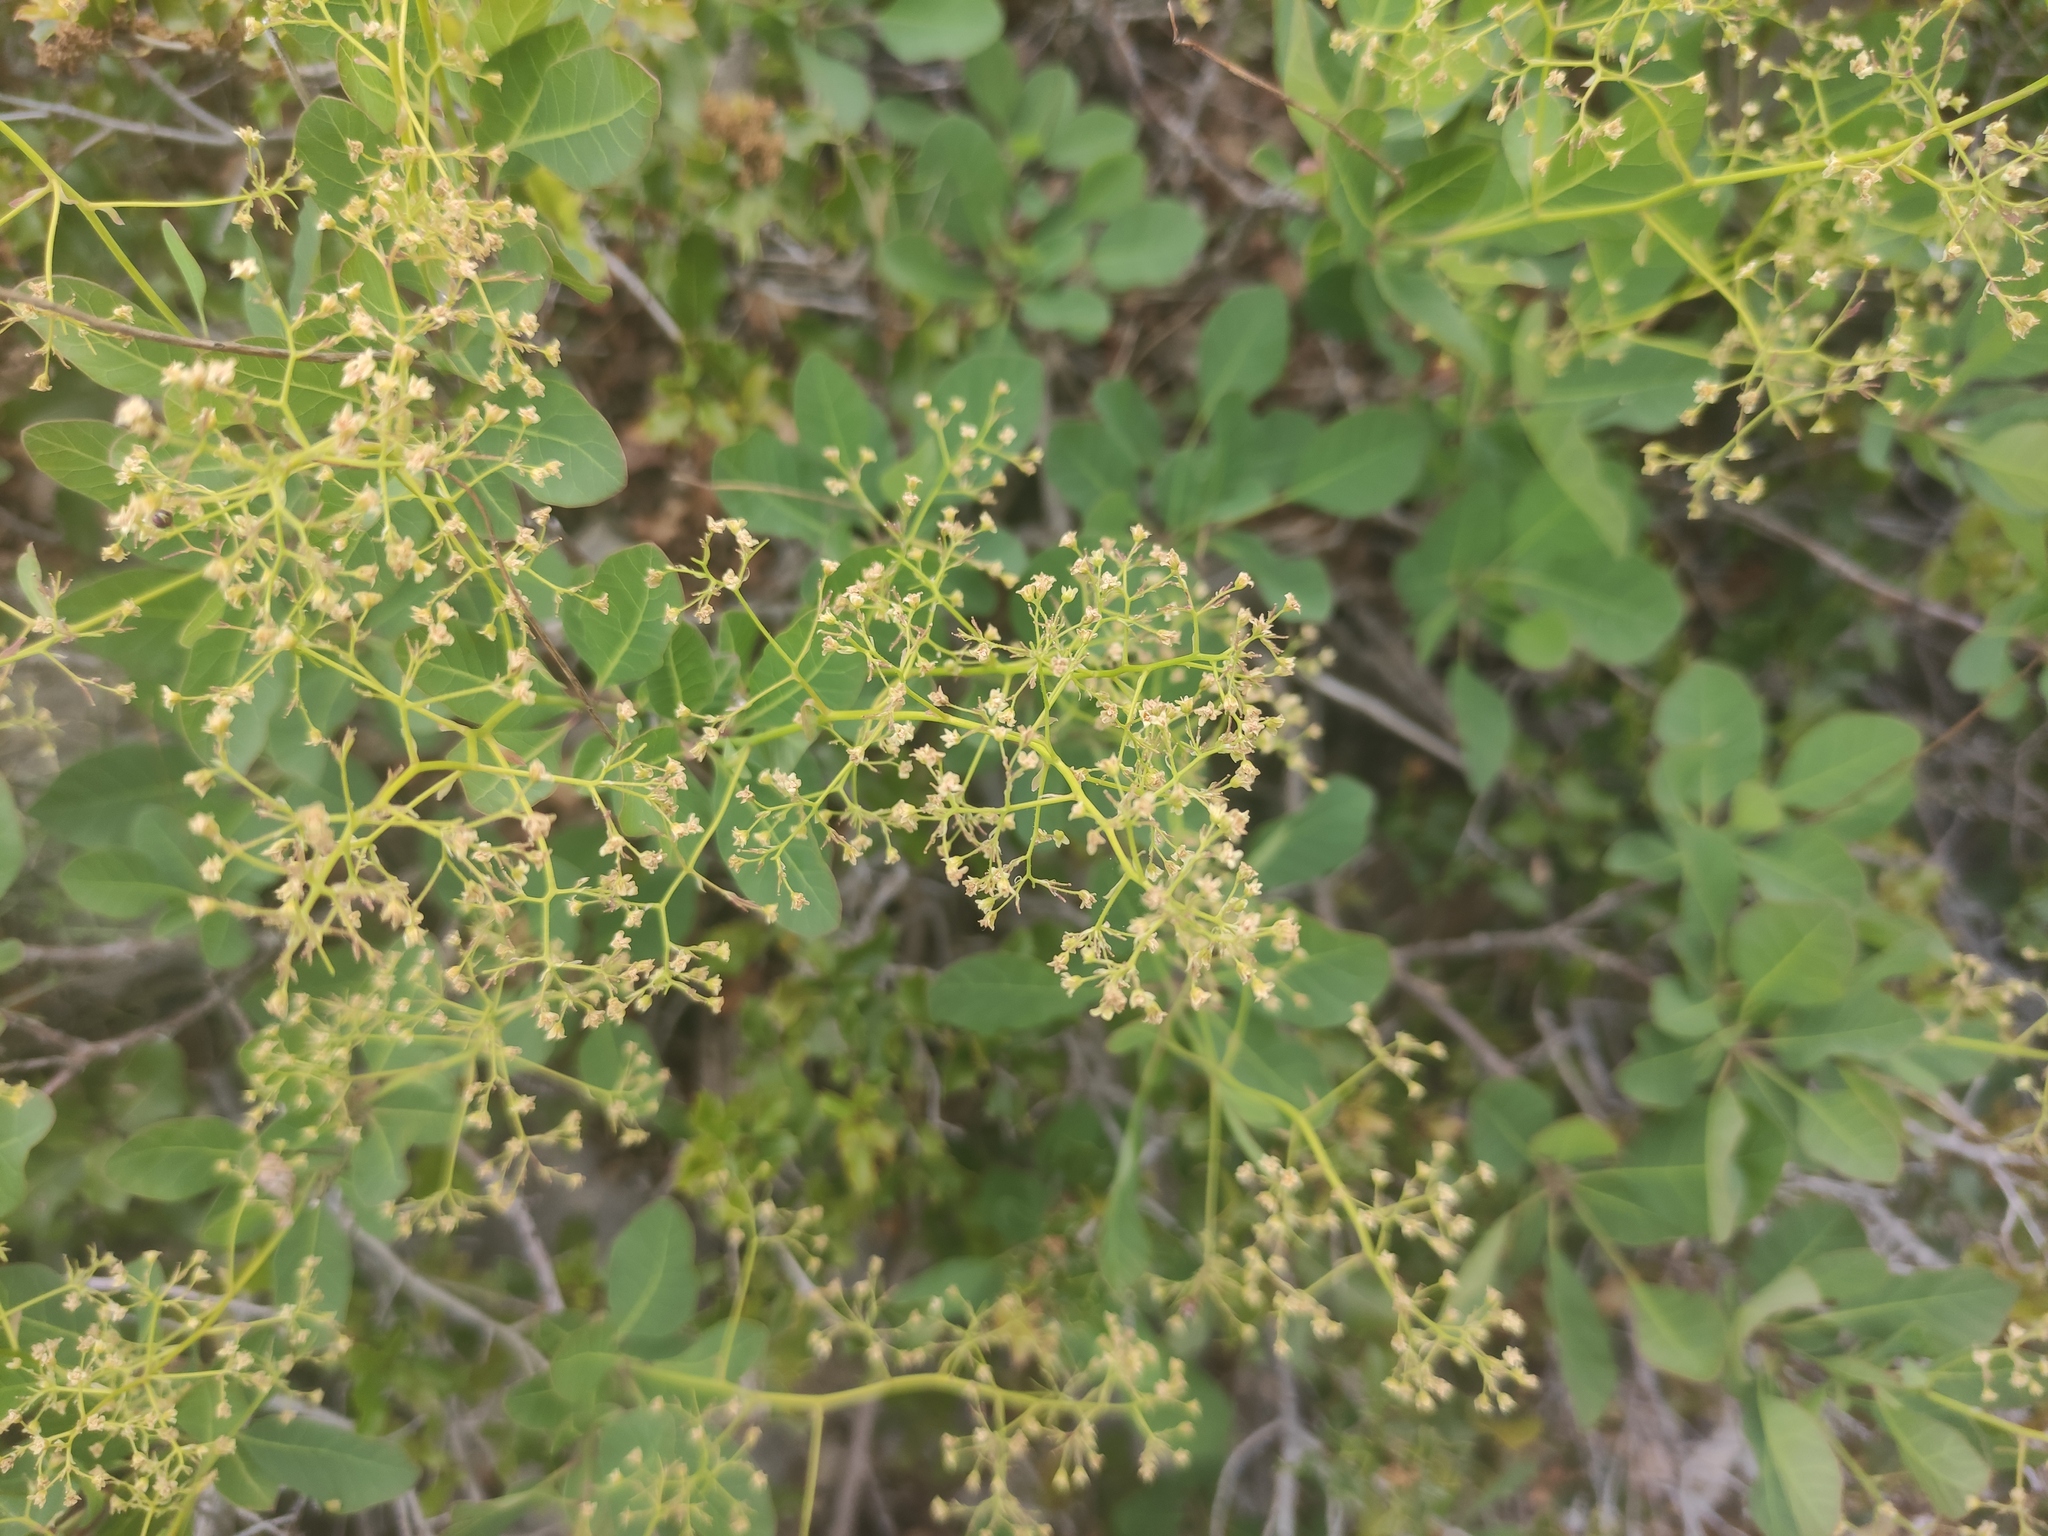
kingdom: Plantae
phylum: Tracheophyta
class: Magnoliopsida
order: Sapindales
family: Anacardiaceae
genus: Cotinus
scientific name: Cotinus coggygria
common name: Smoke-tree
